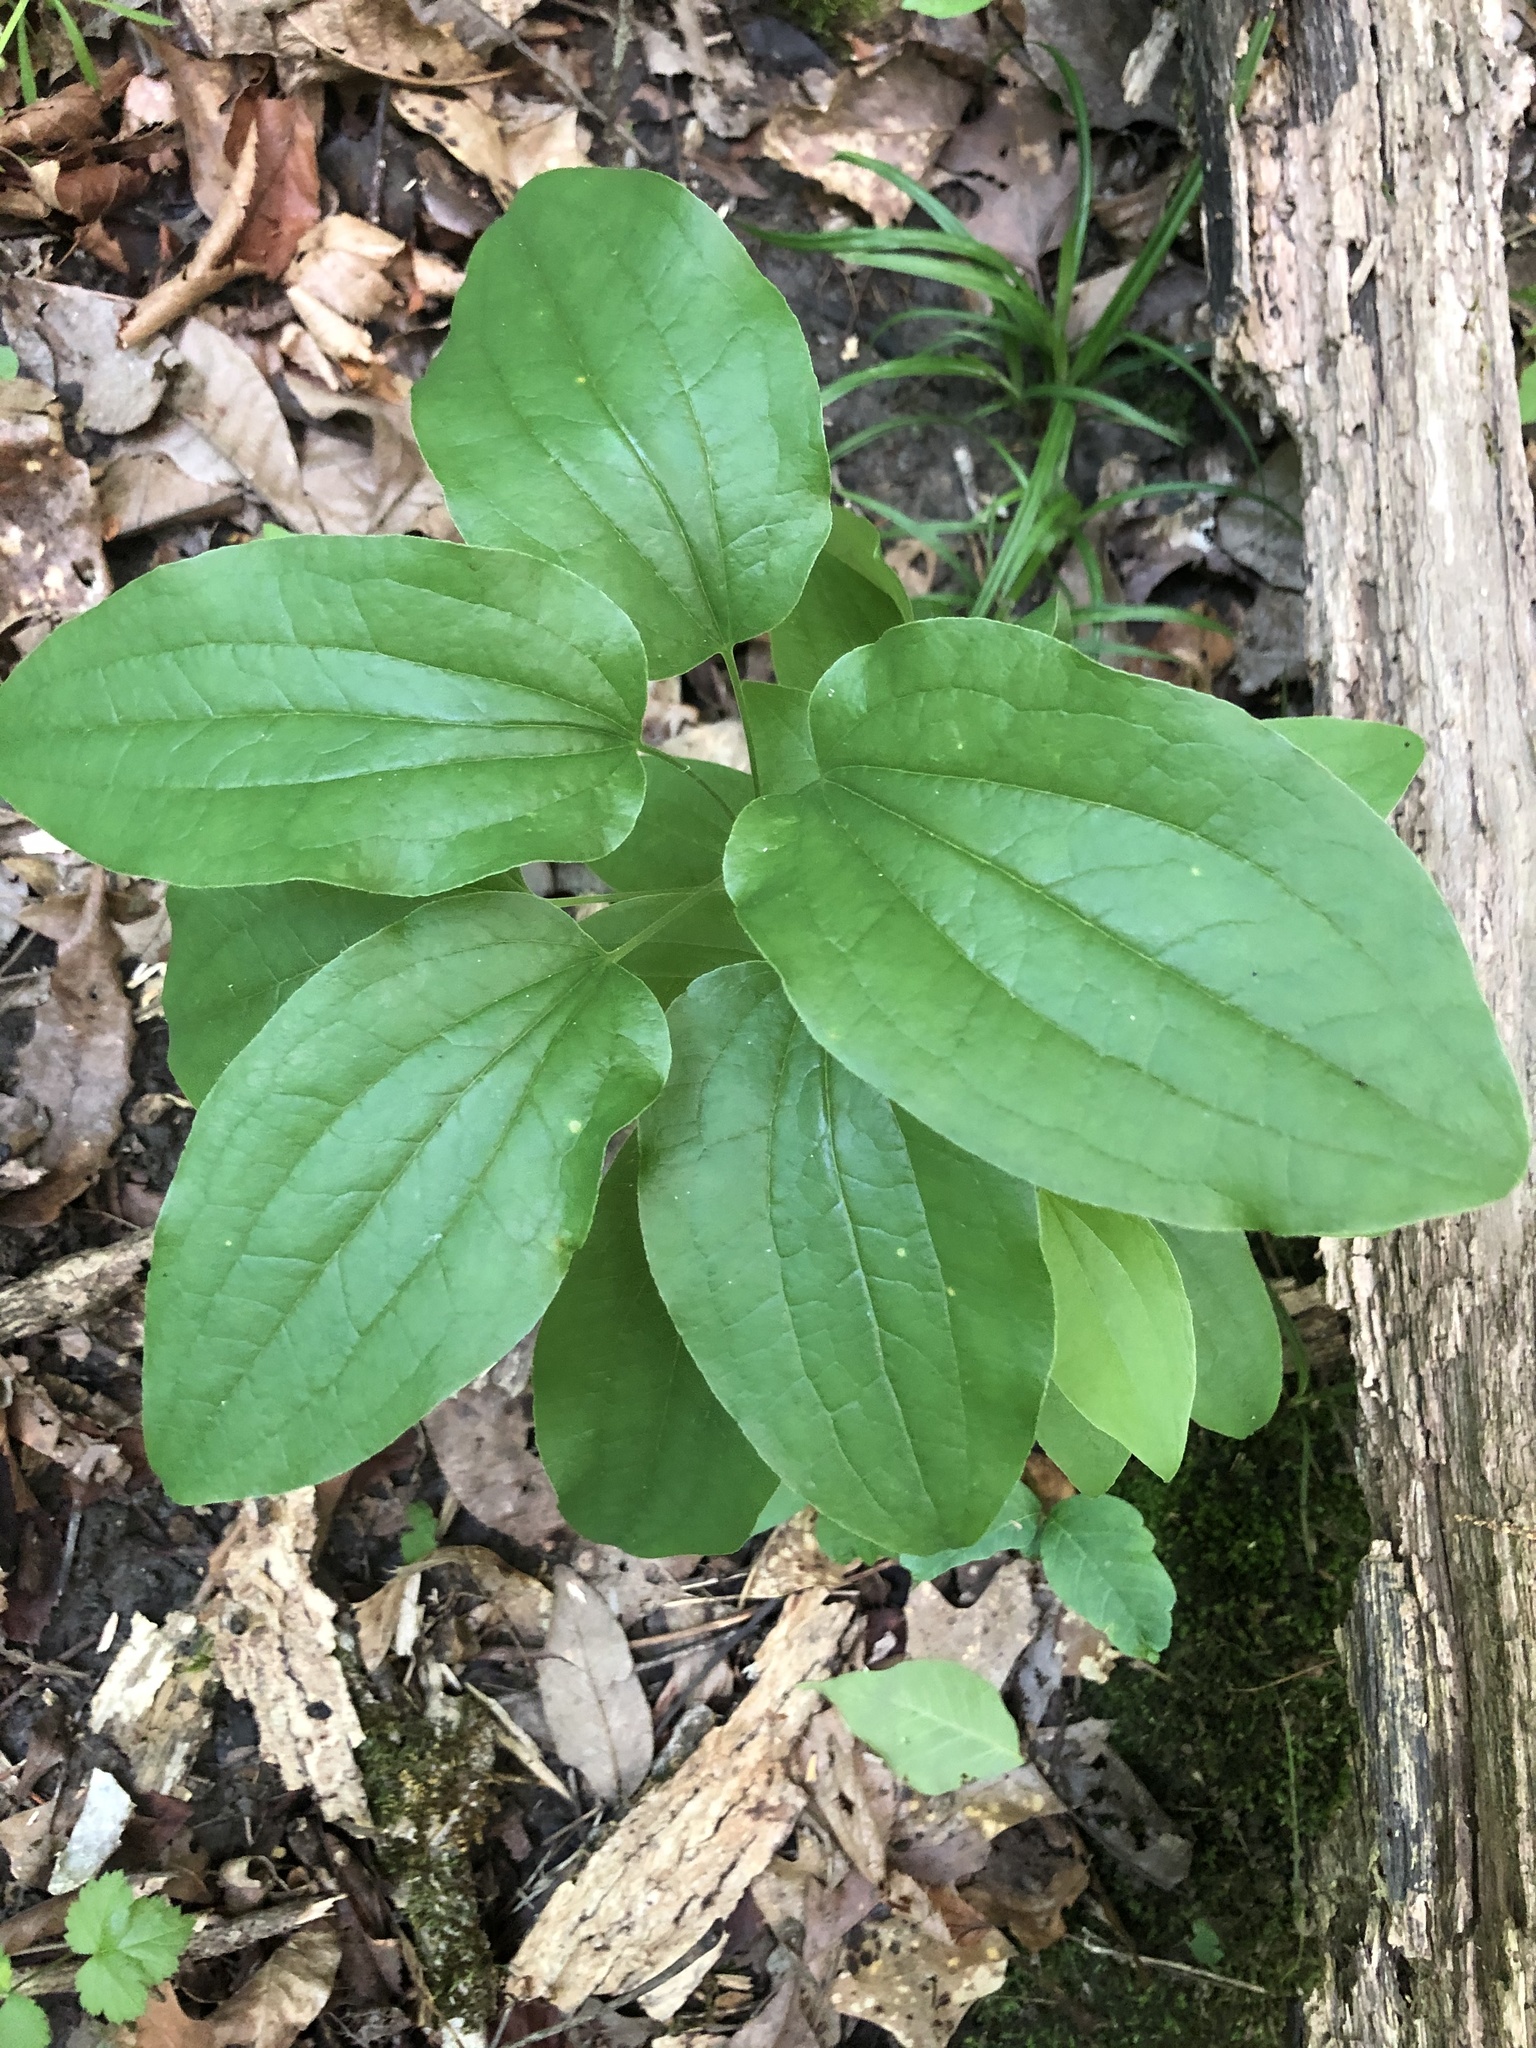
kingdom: Plantae
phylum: Tracheophyta
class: Liliopsida
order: Liliales
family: Smilacaceae
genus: Smilax
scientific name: Smilax lasioneura
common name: Blue ridge carrionflower
